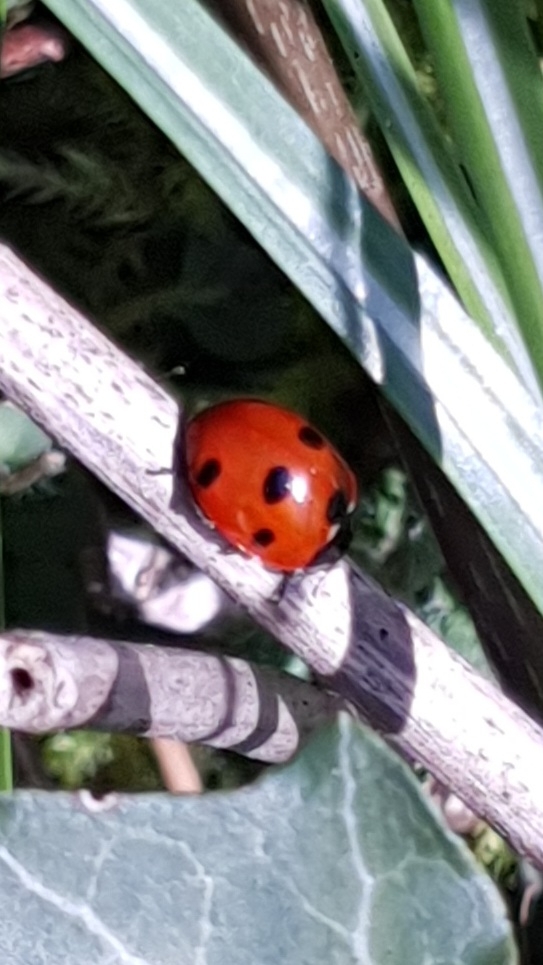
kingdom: Animalia
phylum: Arthropoda
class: Insecta
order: Coleoptera
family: Coccinellidae
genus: Coccinella
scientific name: Coccinella septempunctata
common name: Sevenspotted lady beetle
